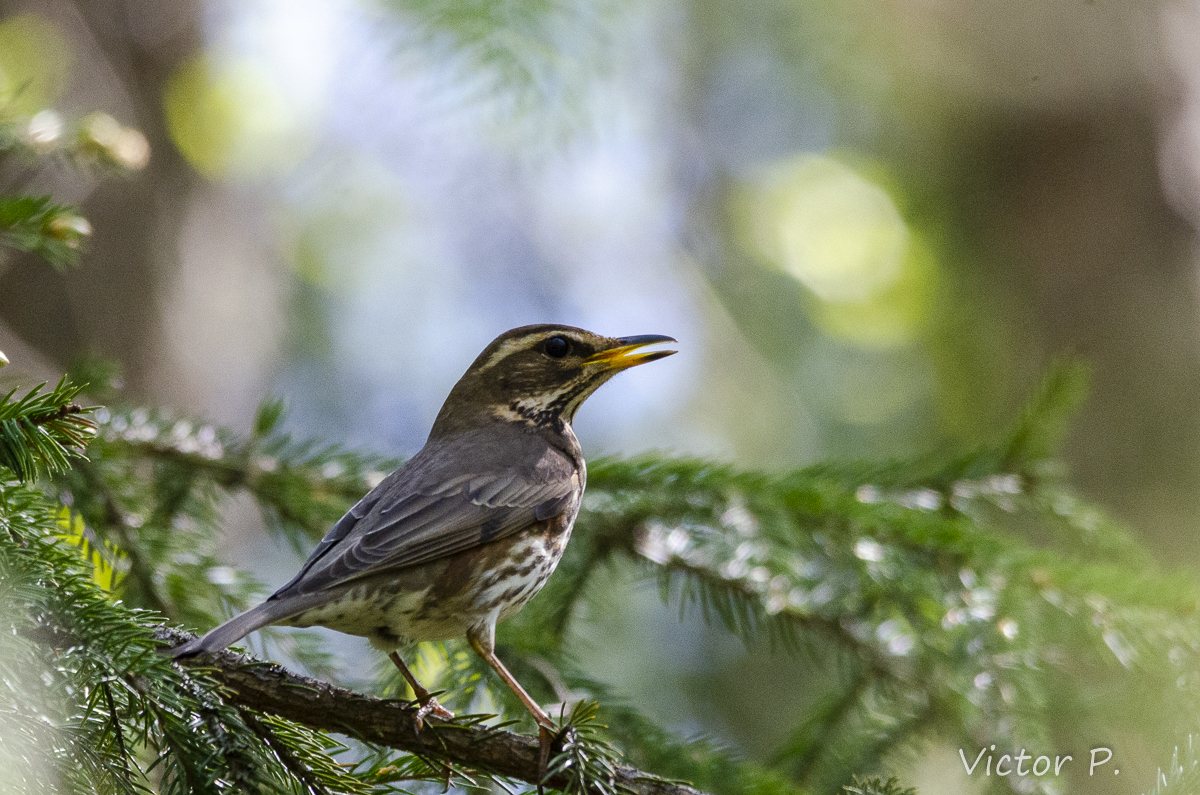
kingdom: Animalia
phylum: Chordata
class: Aves
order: Passeriformes
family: Turdidae
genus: Turdus
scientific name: Turdus iliacus
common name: Redwing
